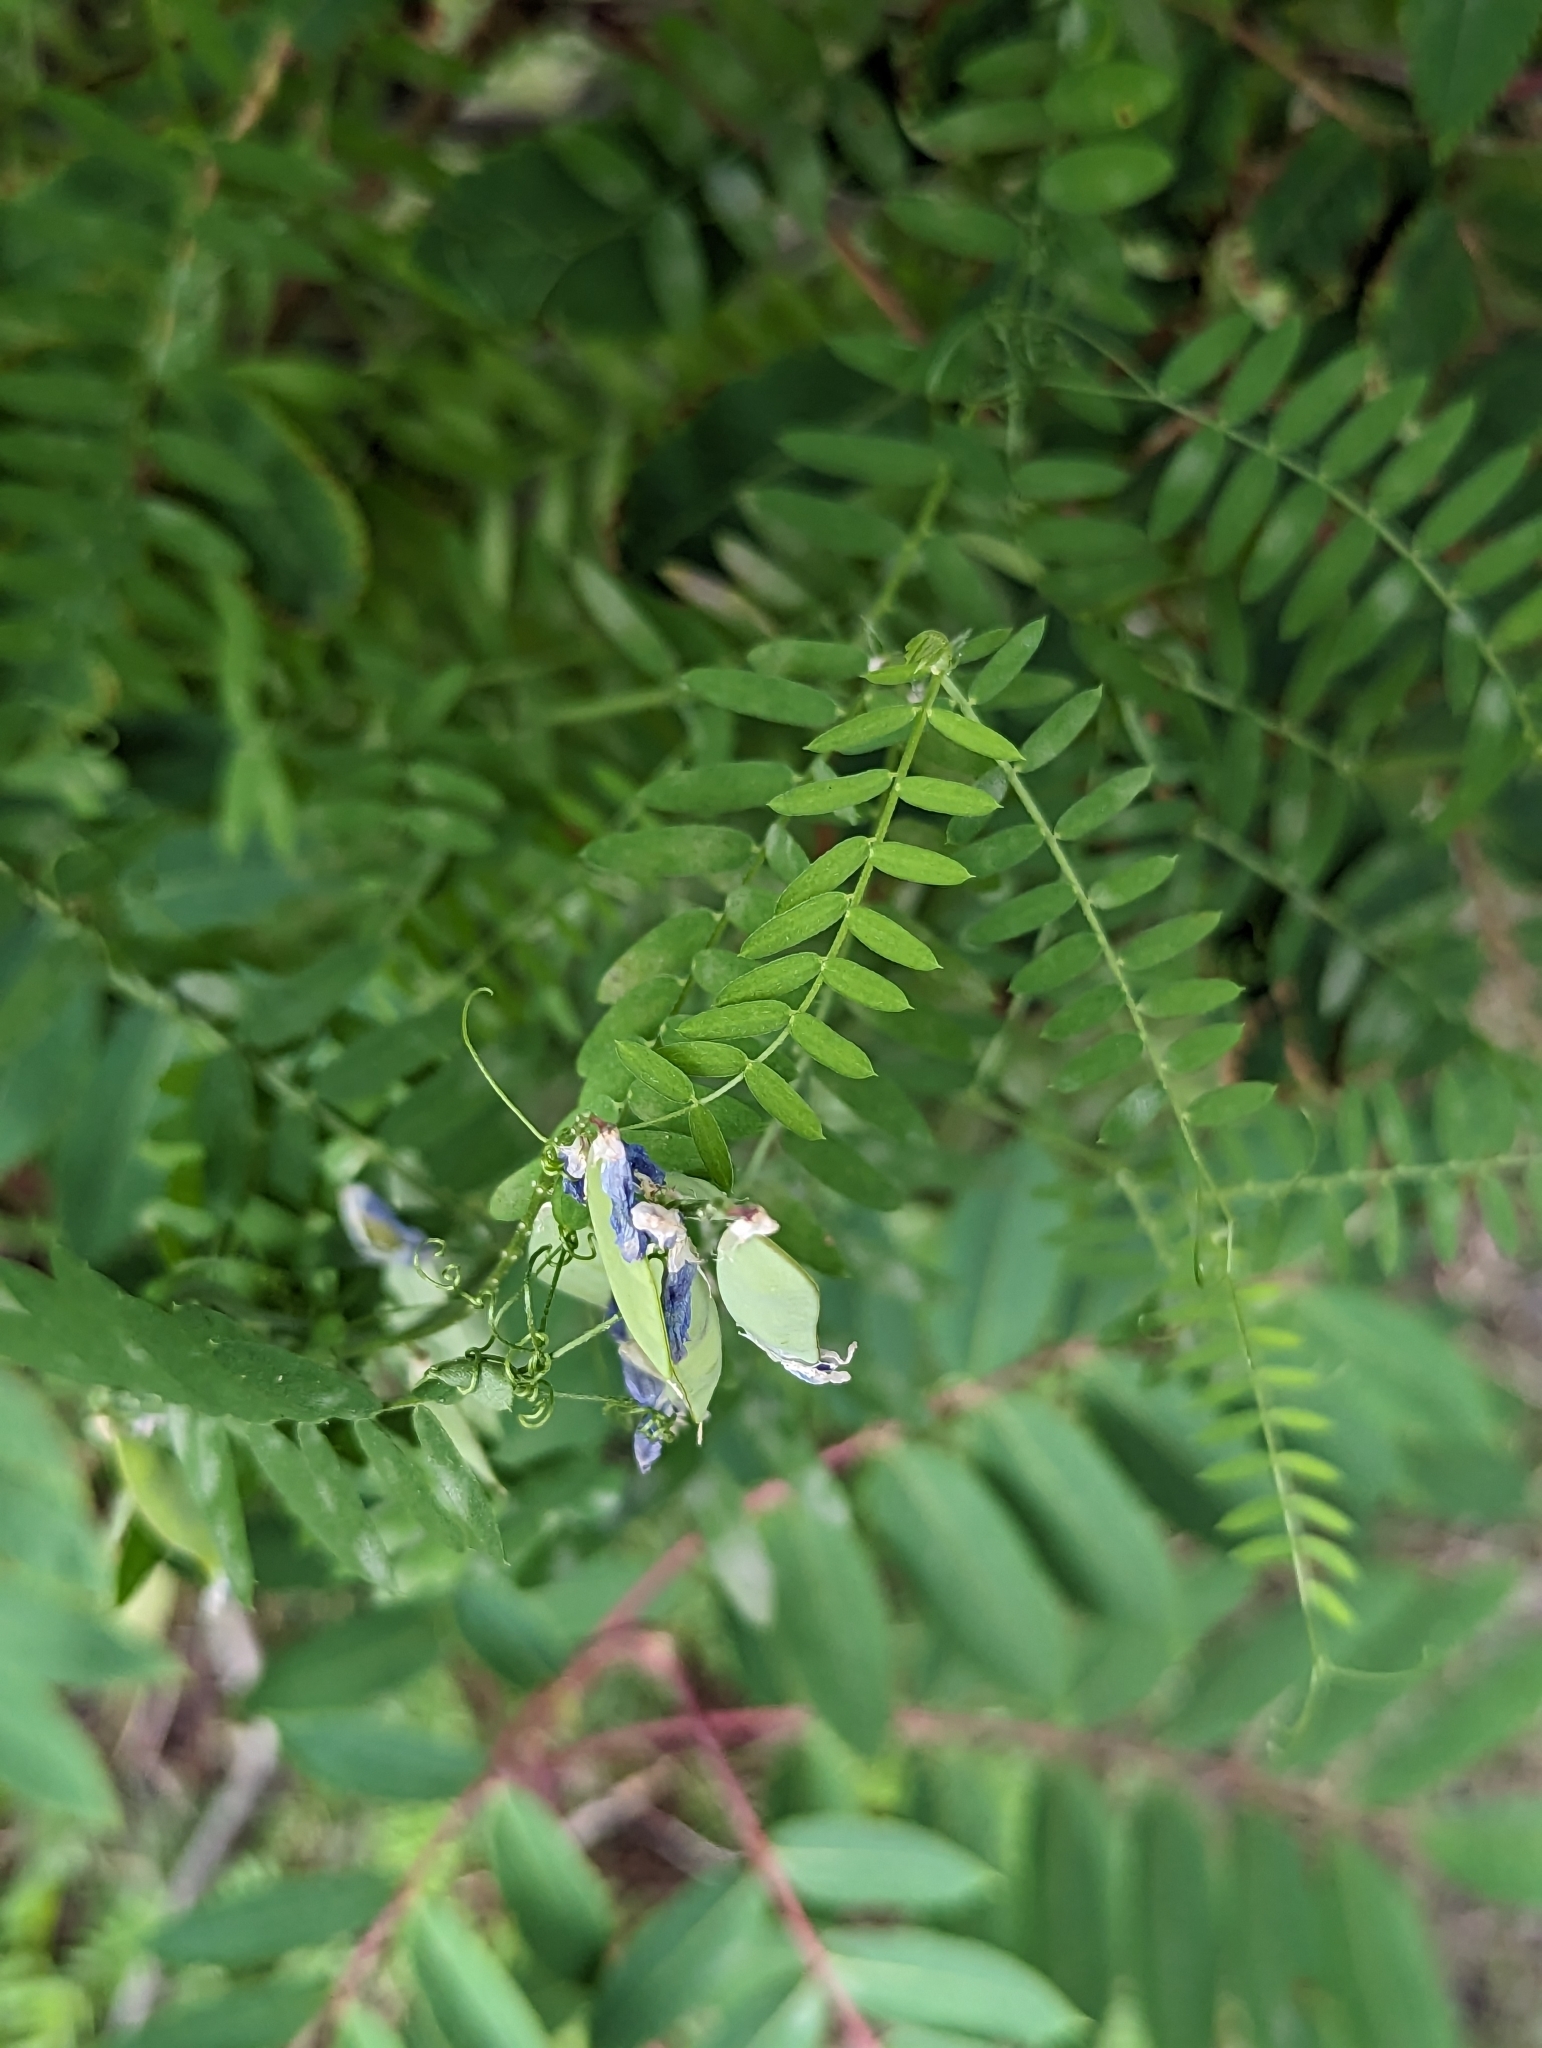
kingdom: Plantae
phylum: Tracheophyta
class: Magnoliopsida
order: Fabales
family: Fabaceae
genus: Vicia
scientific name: Vicia cracca
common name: Bird vetch
